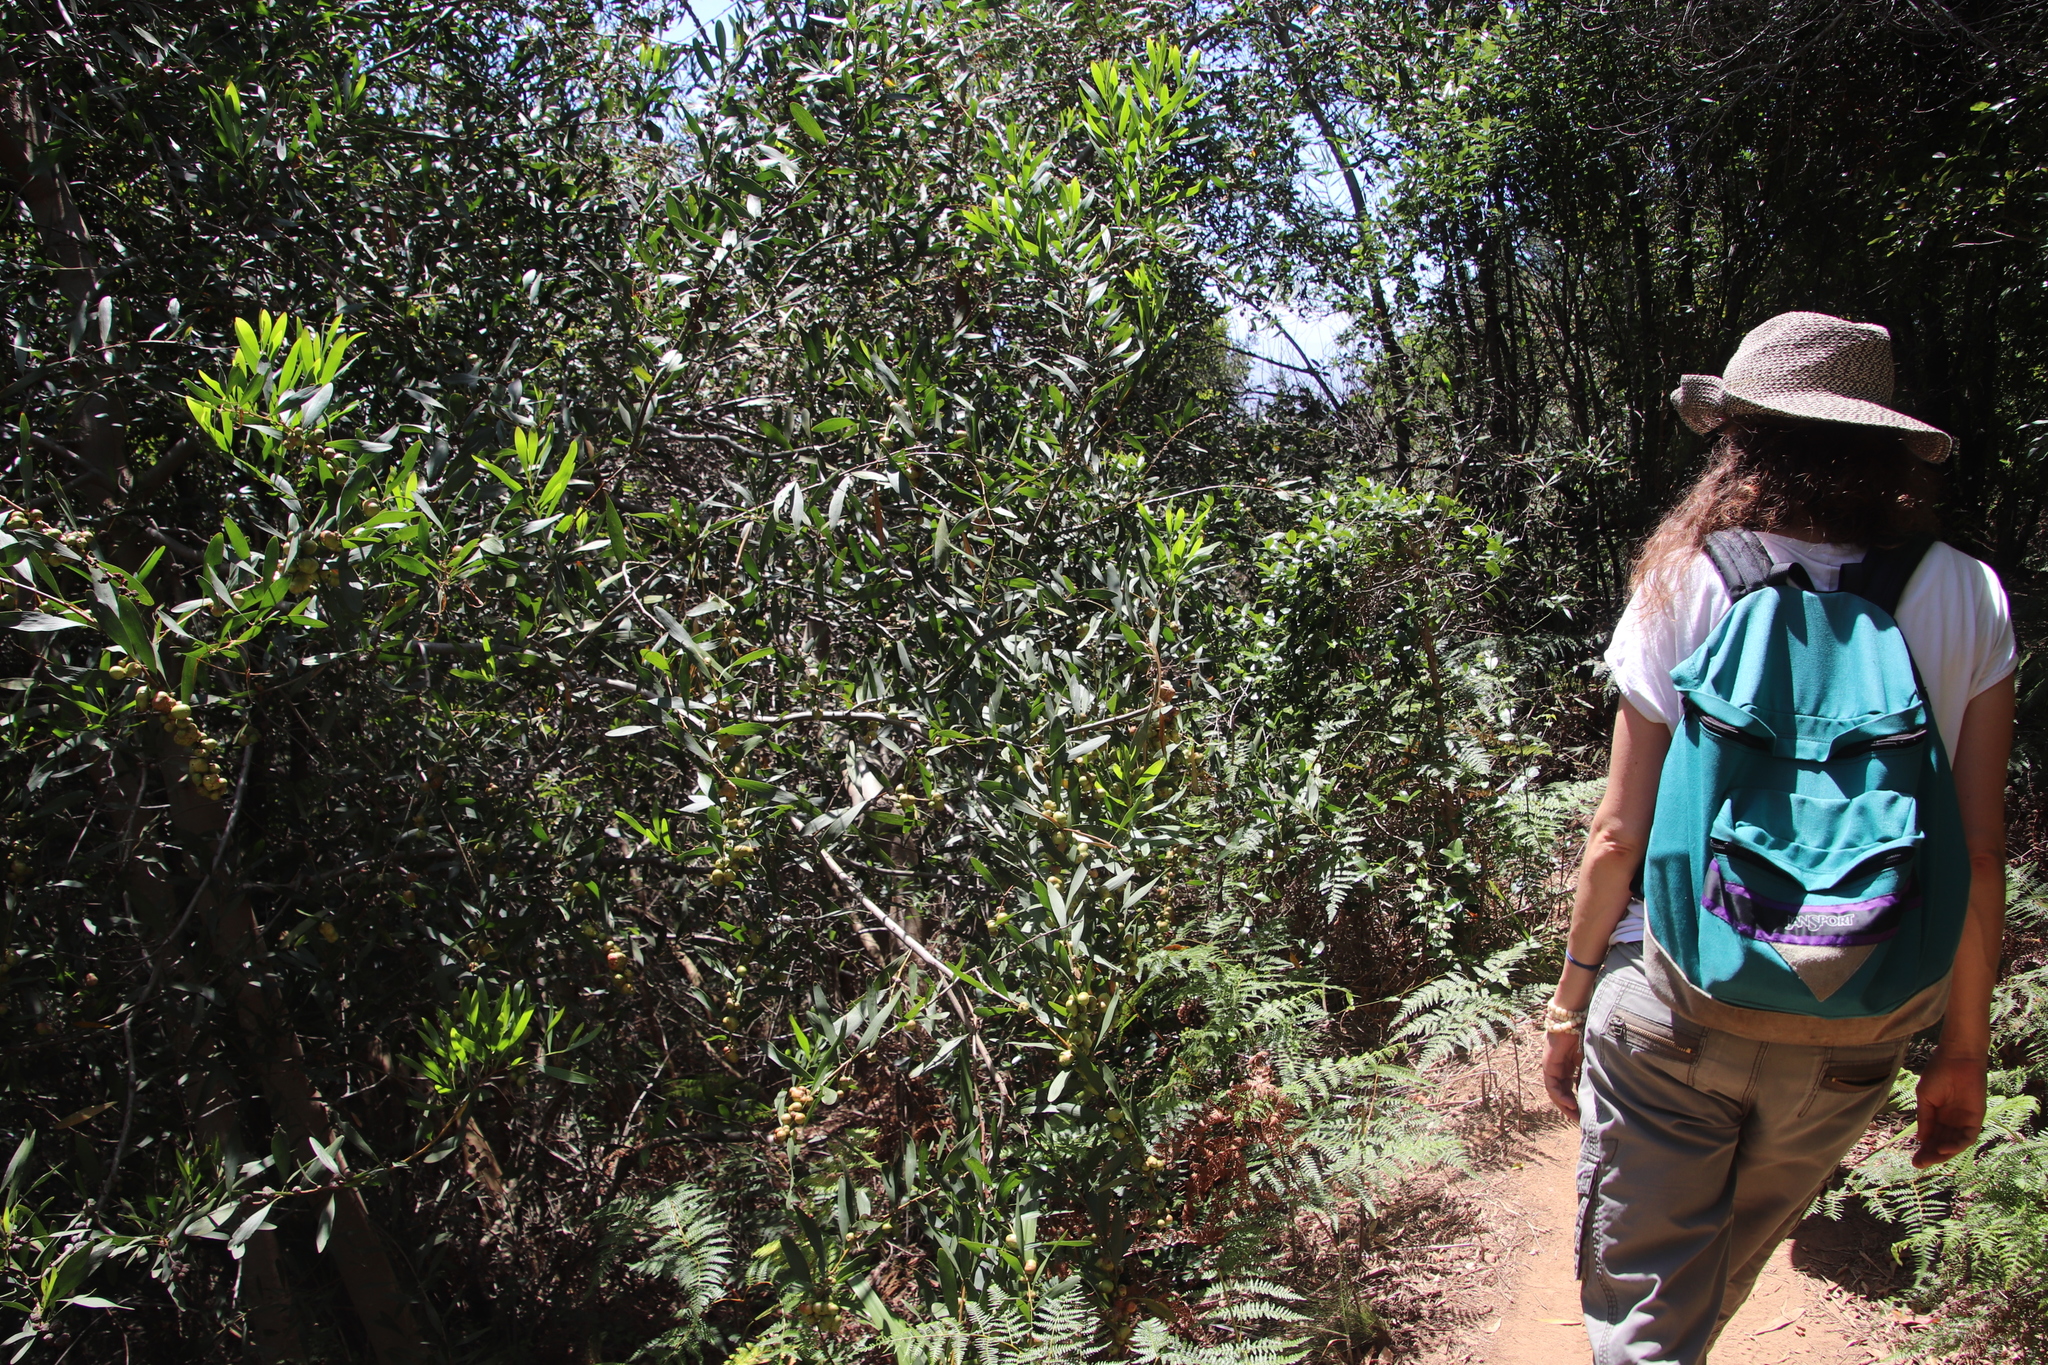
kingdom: Plantae
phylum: Tracheophyta
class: Magnoliopsida
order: Fabales
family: Fabaceae
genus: Acacia
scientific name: Acacia longifolia
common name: Sydney golden wattle
